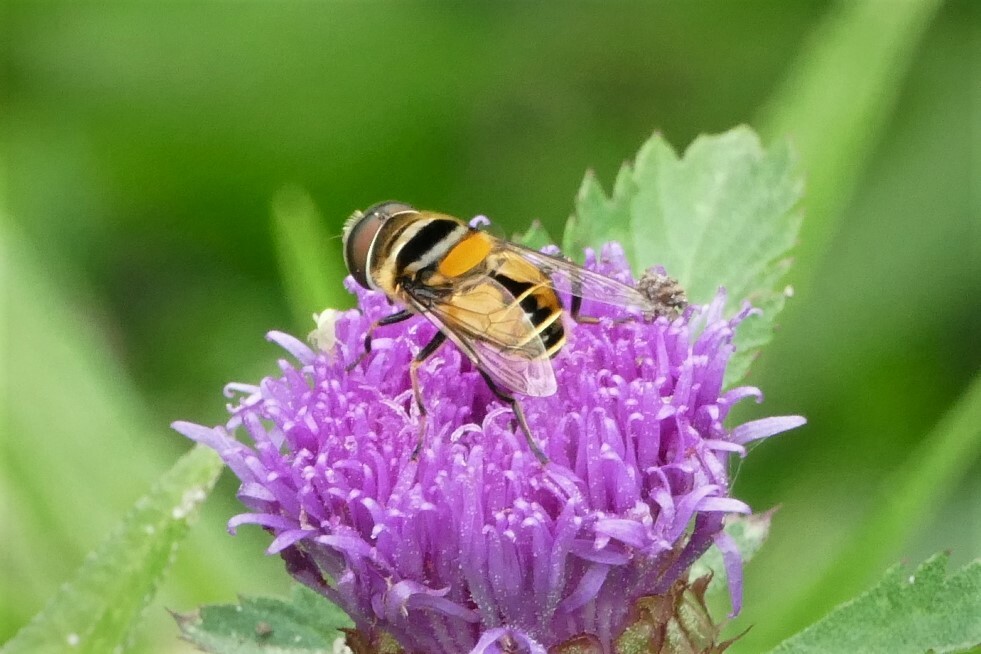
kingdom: Animalia
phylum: Arthropoda
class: Insecta
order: Diptera
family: Syrphidae
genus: Palpada
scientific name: Palpada agrorum
